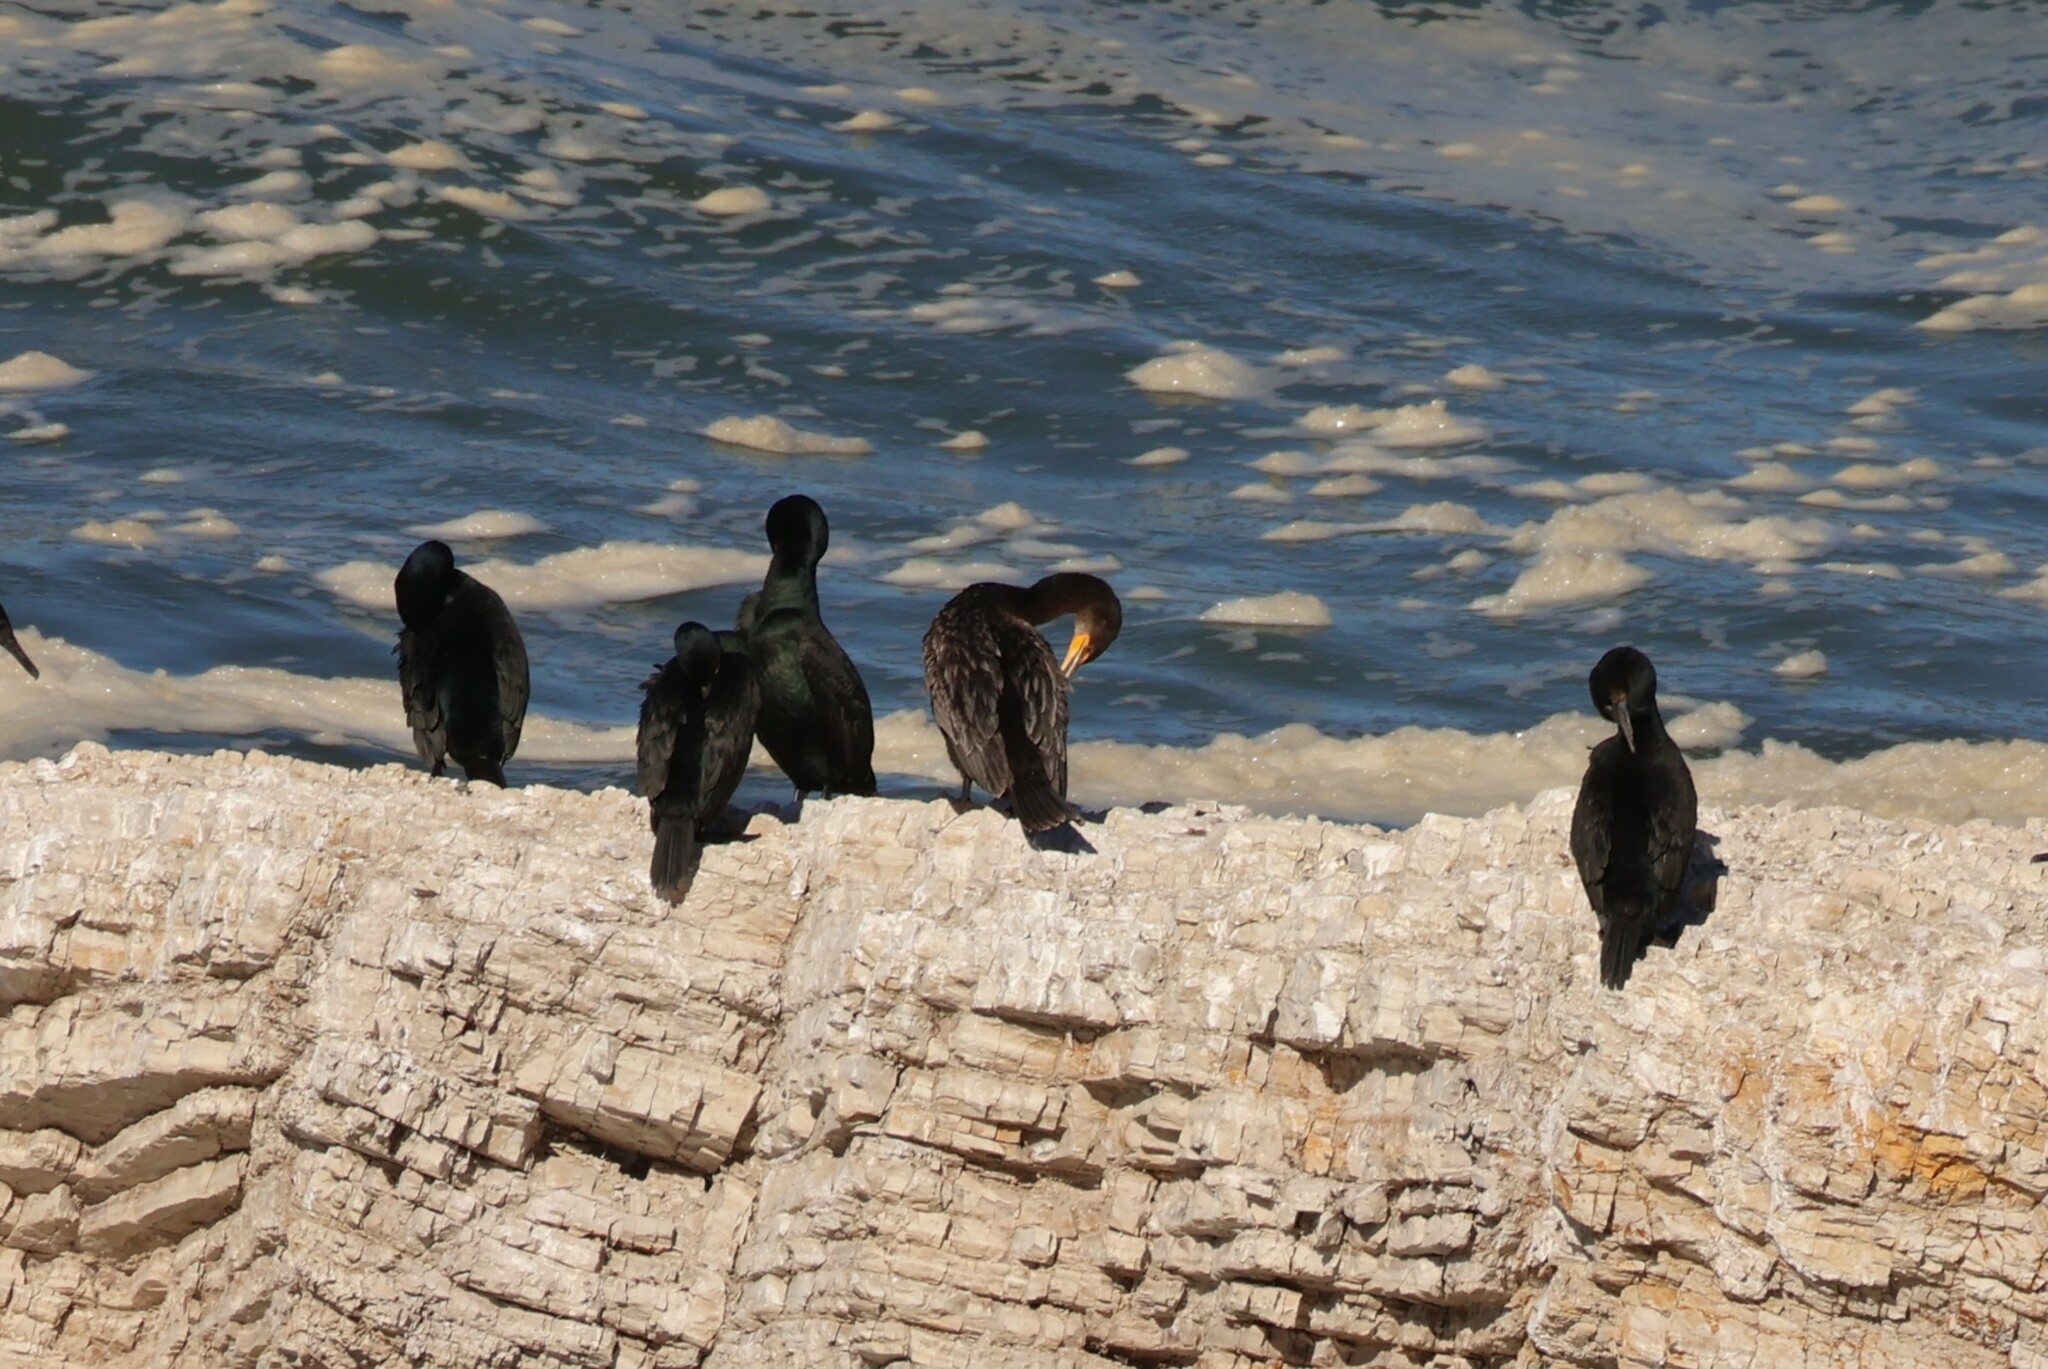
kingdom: Animalia
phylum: Chordata
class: Aves
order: Suliformes
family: Phalacrocoracidae
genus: Phalacrocorax
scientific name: Phalacrocorax auritus
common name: Double-crested cormorant
